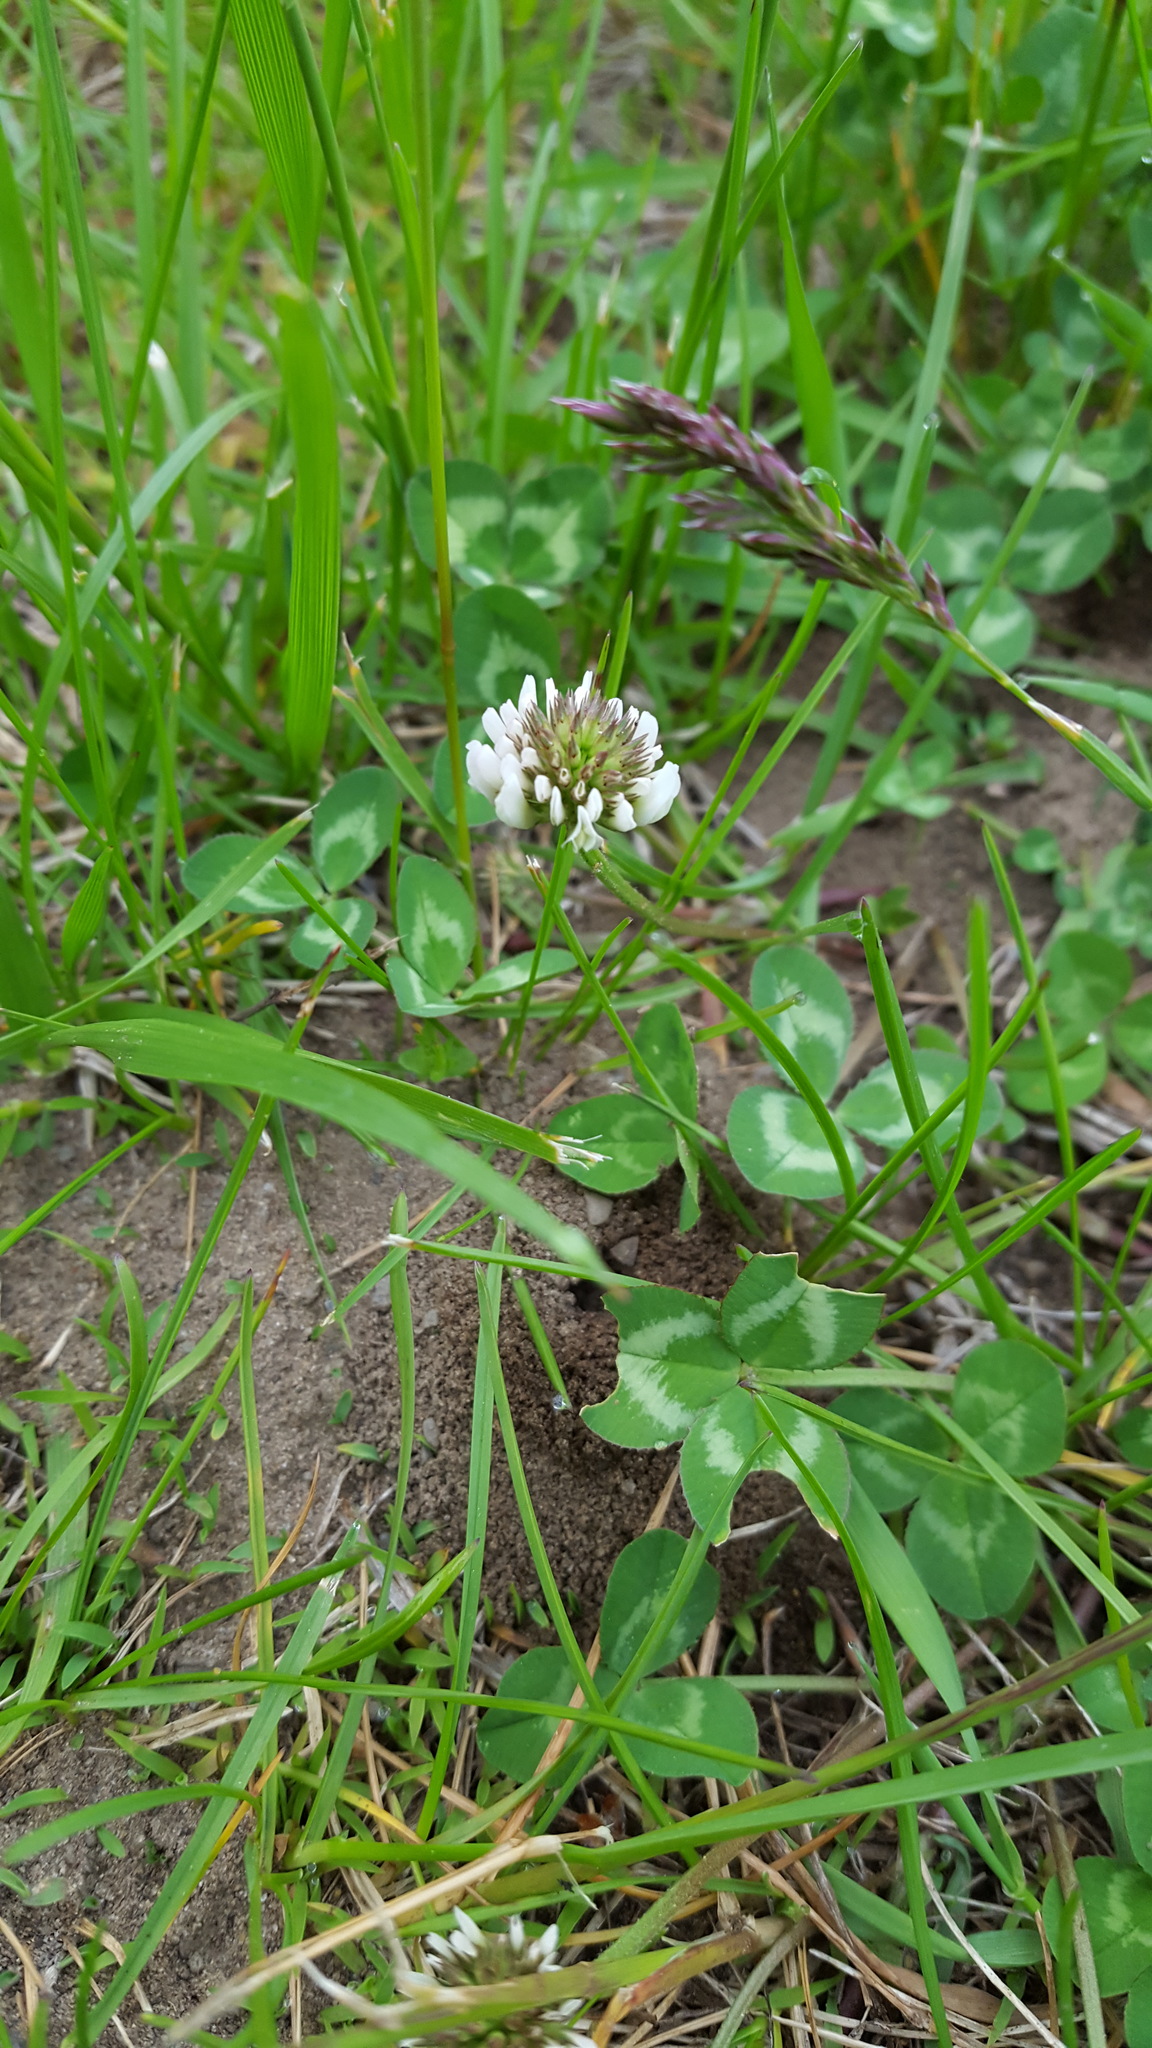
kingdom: Plantae
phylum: Tracheophyta
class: Magnoliopsida
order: Fabales
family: Fabaceae
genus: Trifolium
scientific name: Trifolium repens
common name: White clover
